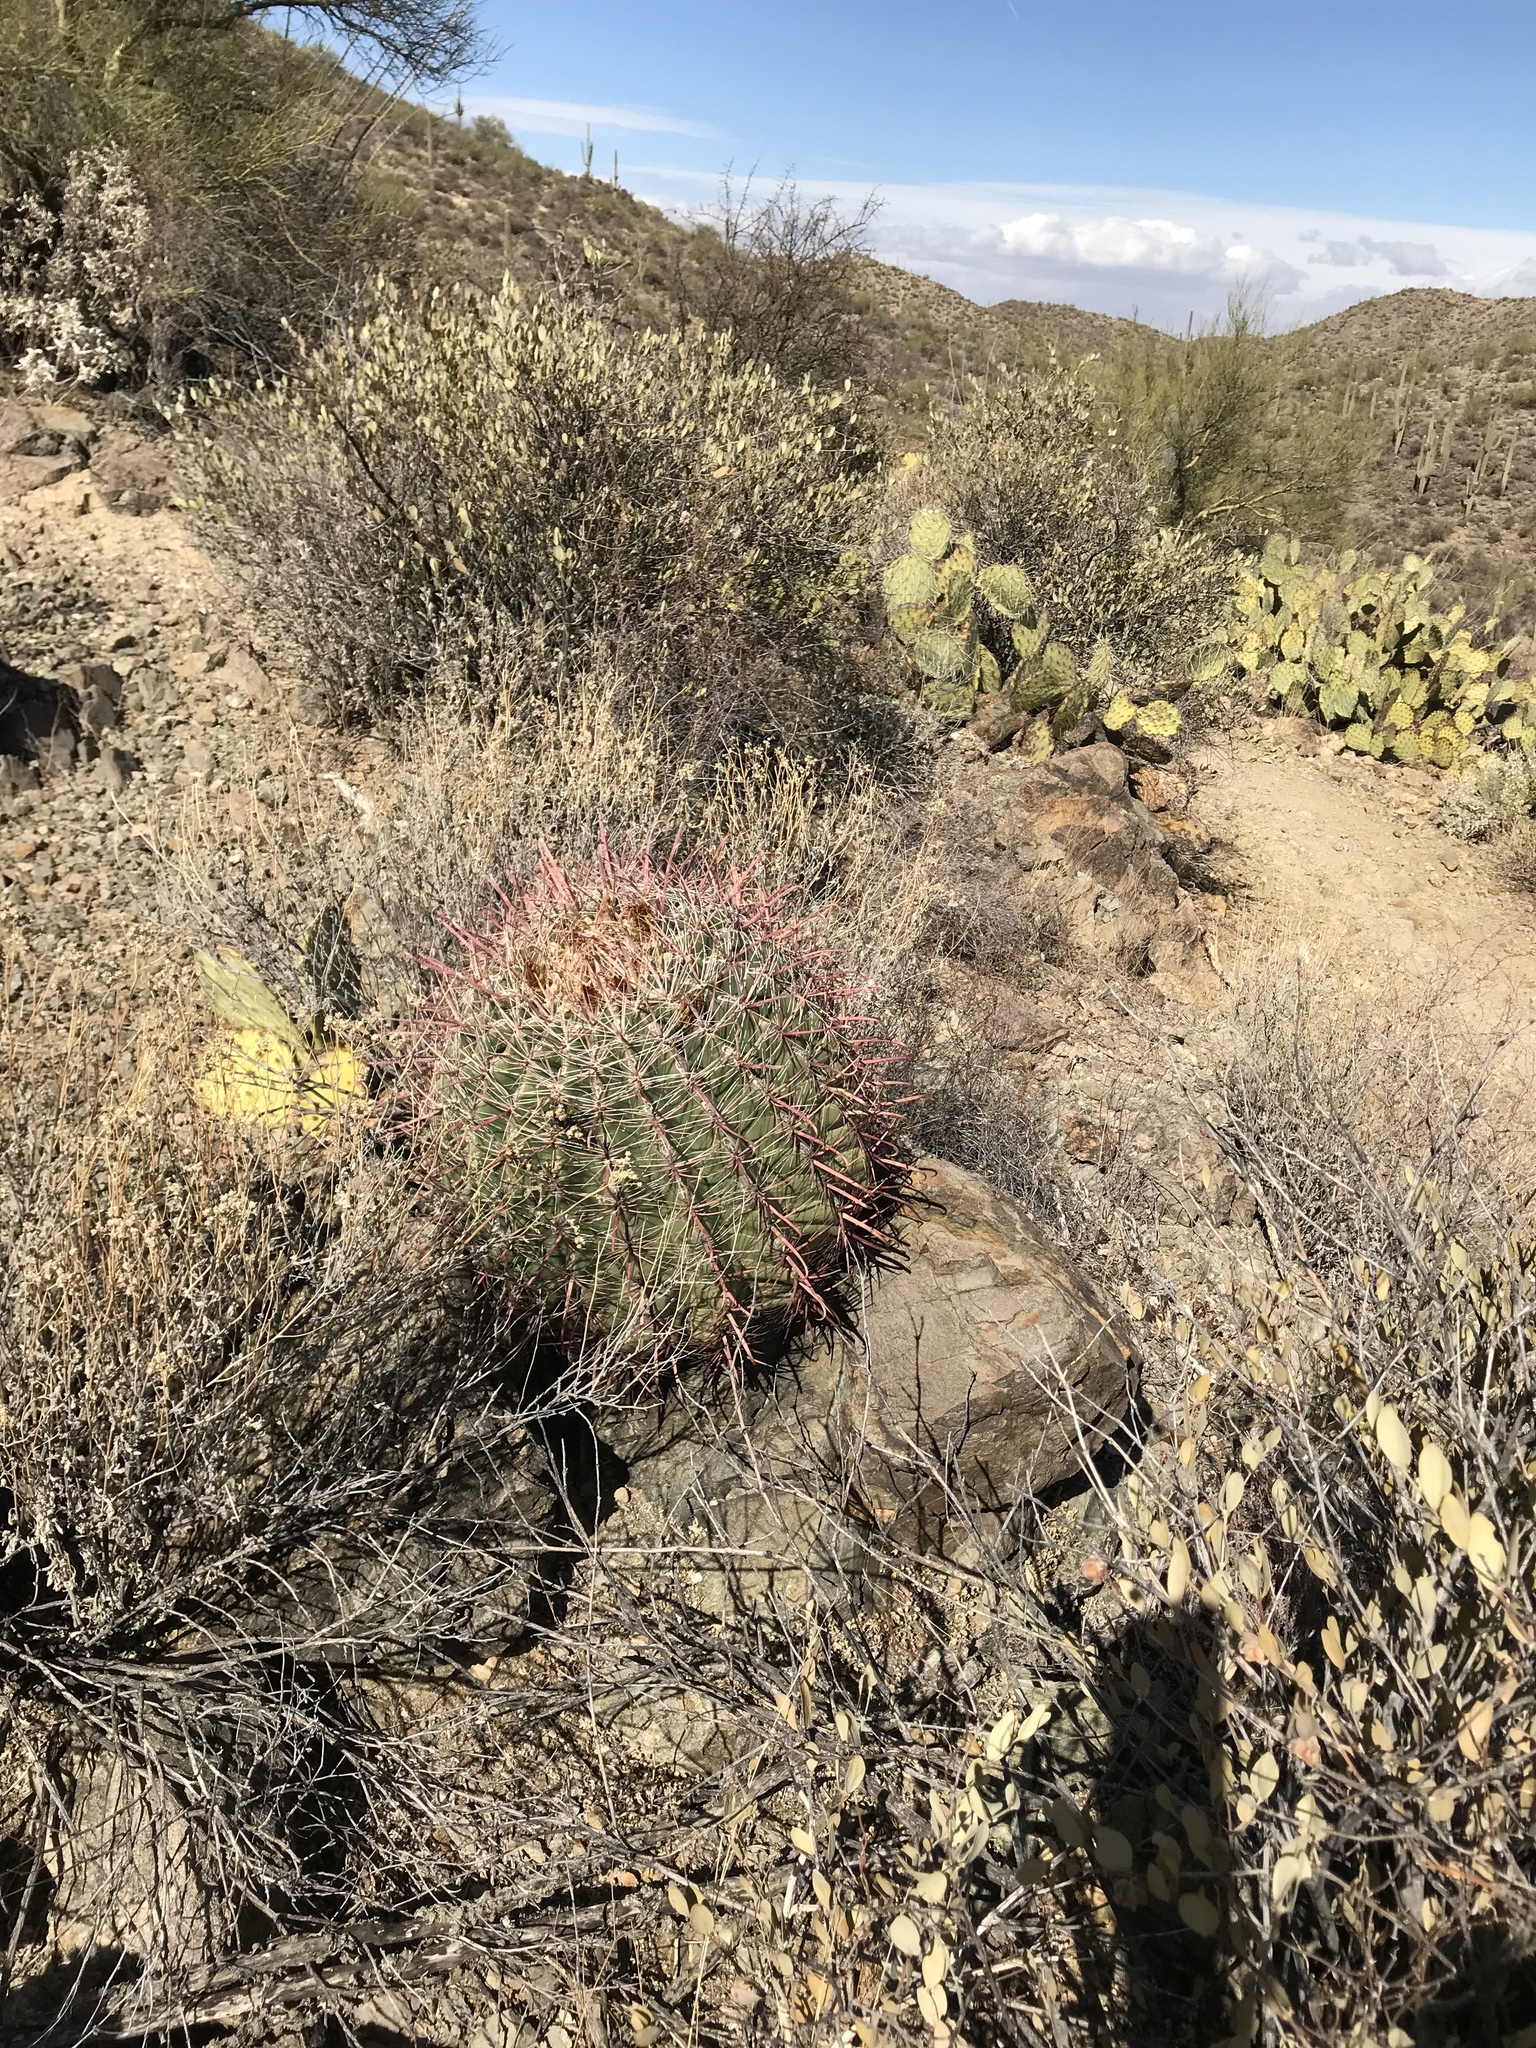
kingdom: Plantae
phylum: Tracheophyta
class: Magnoliopsida
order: Caryophyllales
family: Cactaceae
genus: Ferocactus
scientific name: Ferocactus wislizeni
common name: Candy barrel cactus
